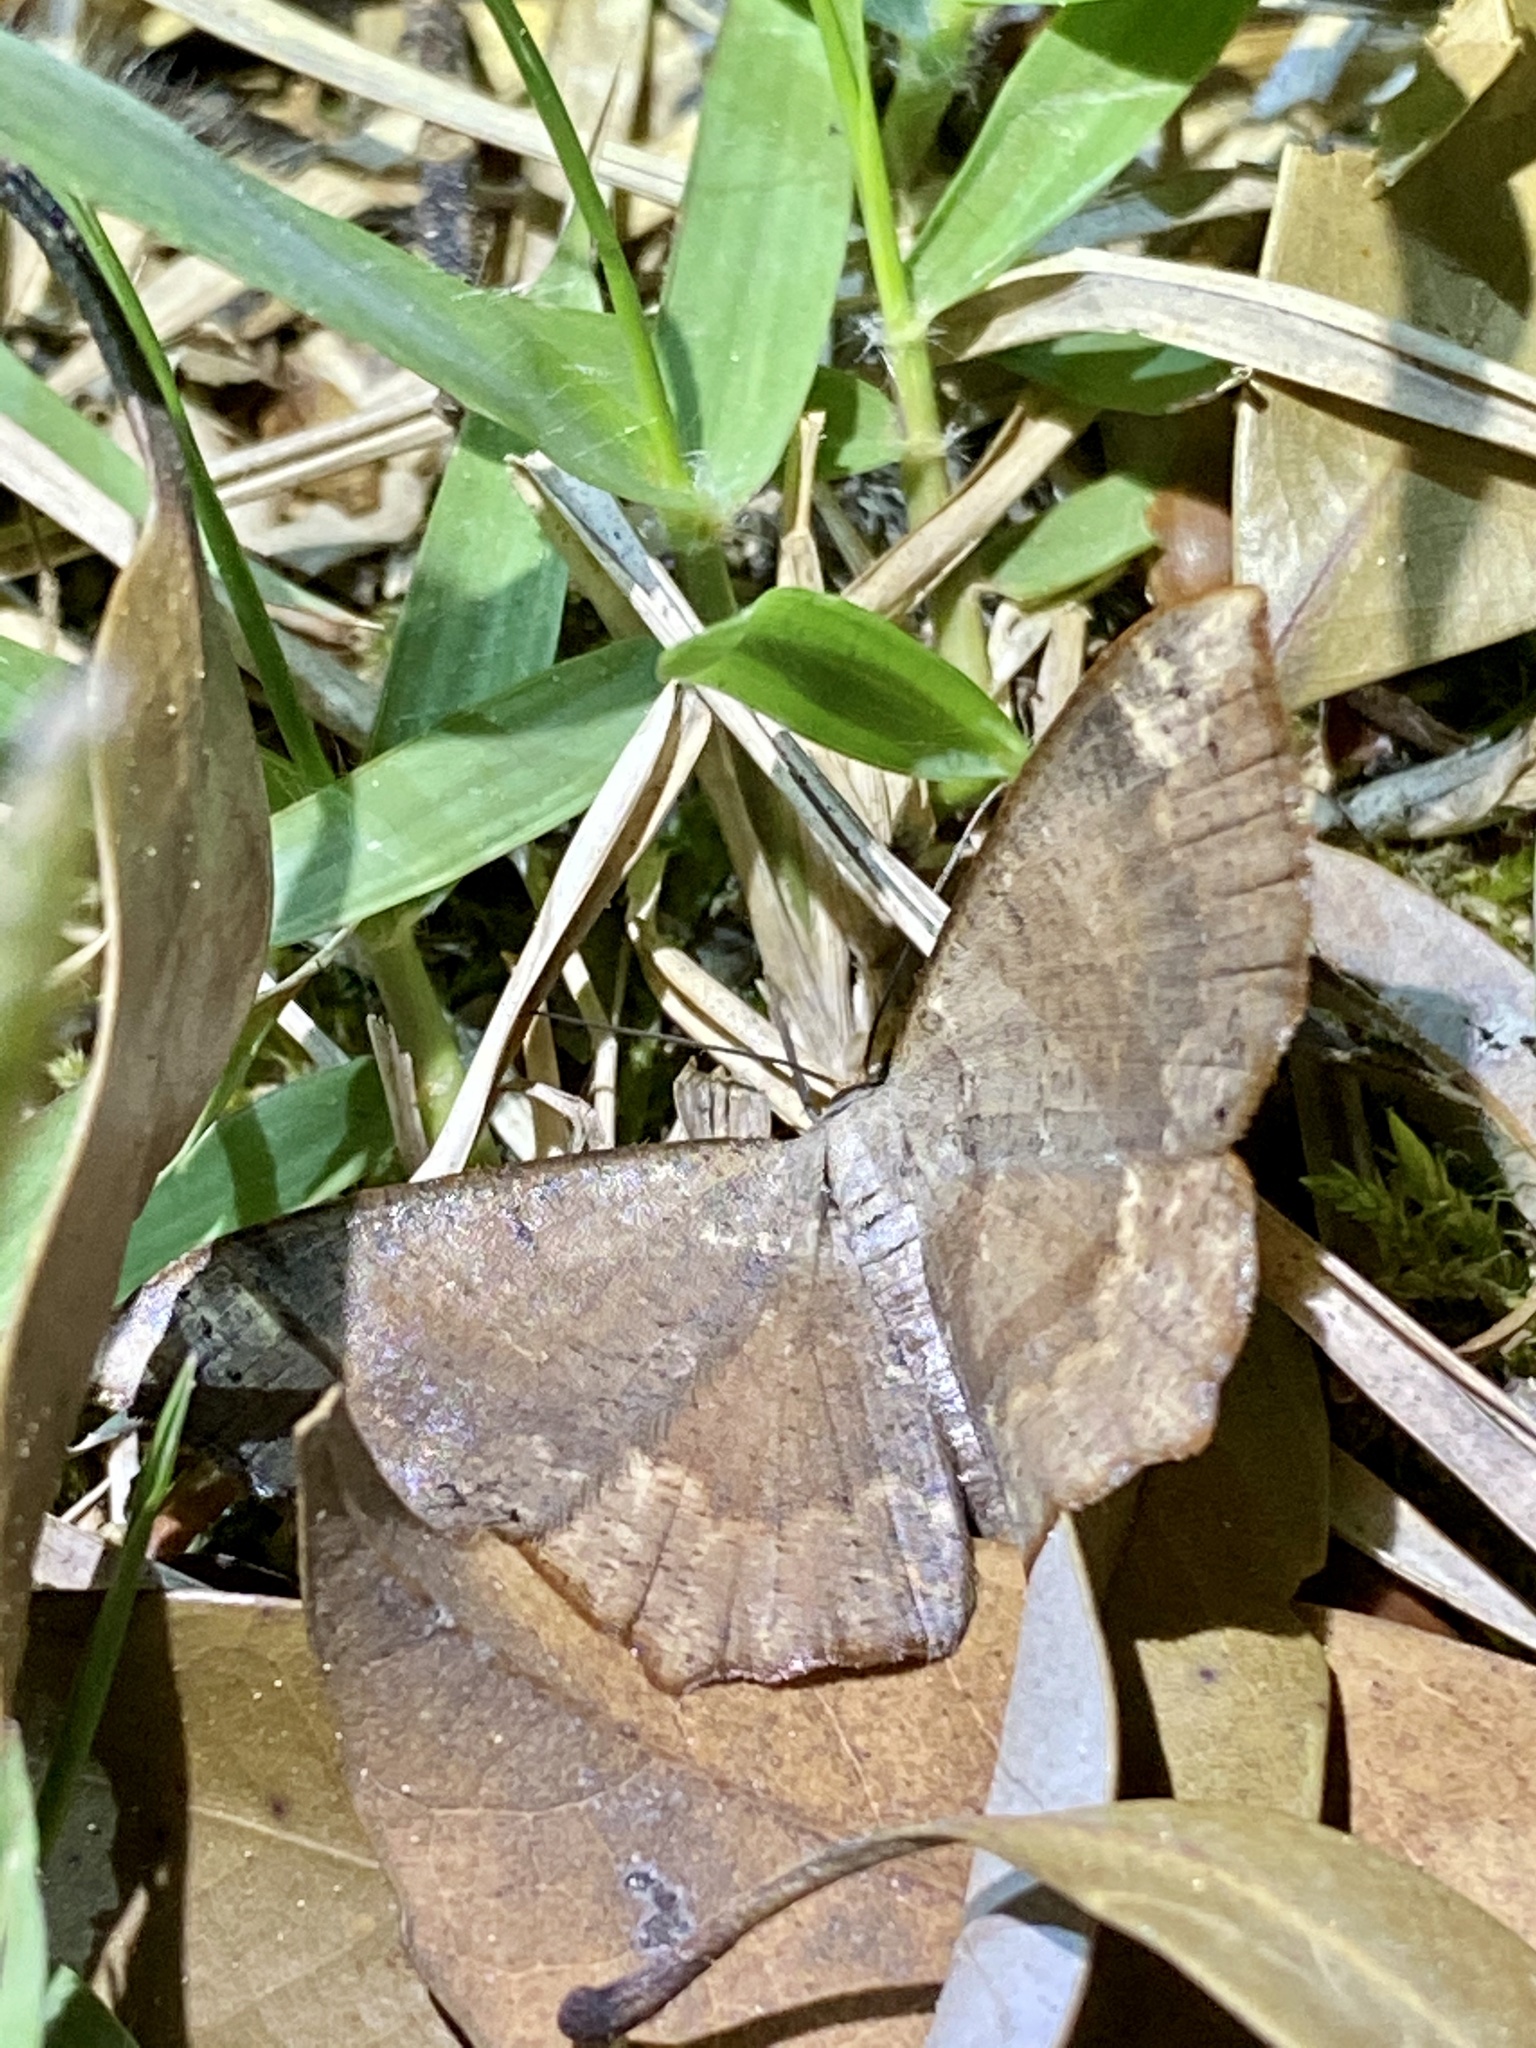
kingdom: Animalia
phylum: Arthropoda
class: Insecta
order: Lepidoptera
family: Geometridae
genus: Peratostega
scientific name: Peratostega deletaria
